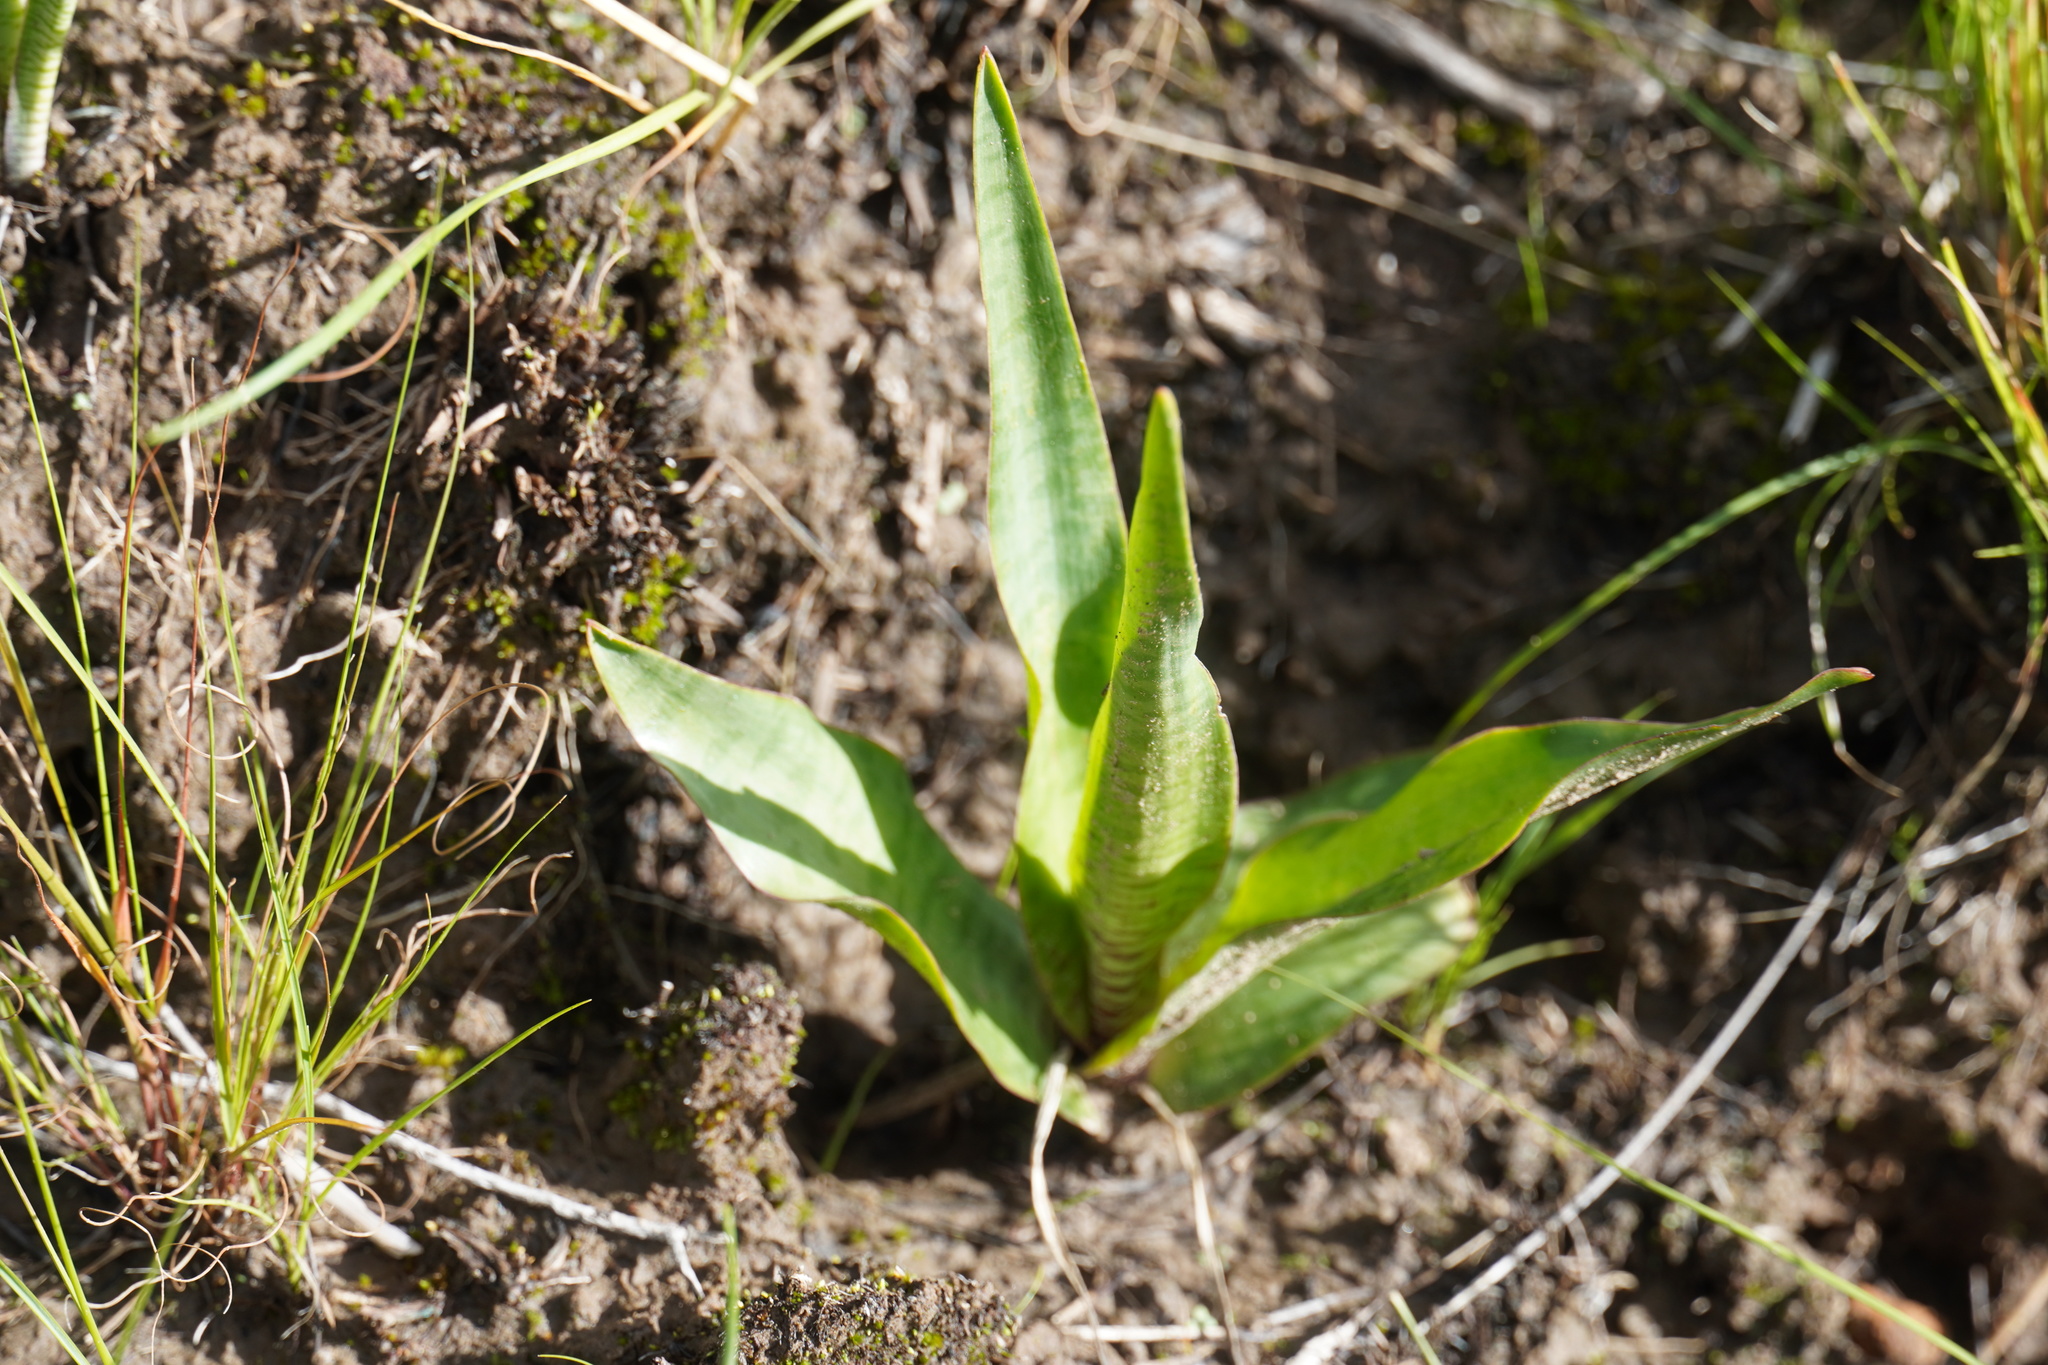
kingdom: Plantae
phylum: Tracheophyta
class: Liliopsida
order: Asparagales
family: Asparagaceae
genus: Ledebouria
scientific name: Ledebouria marginata
